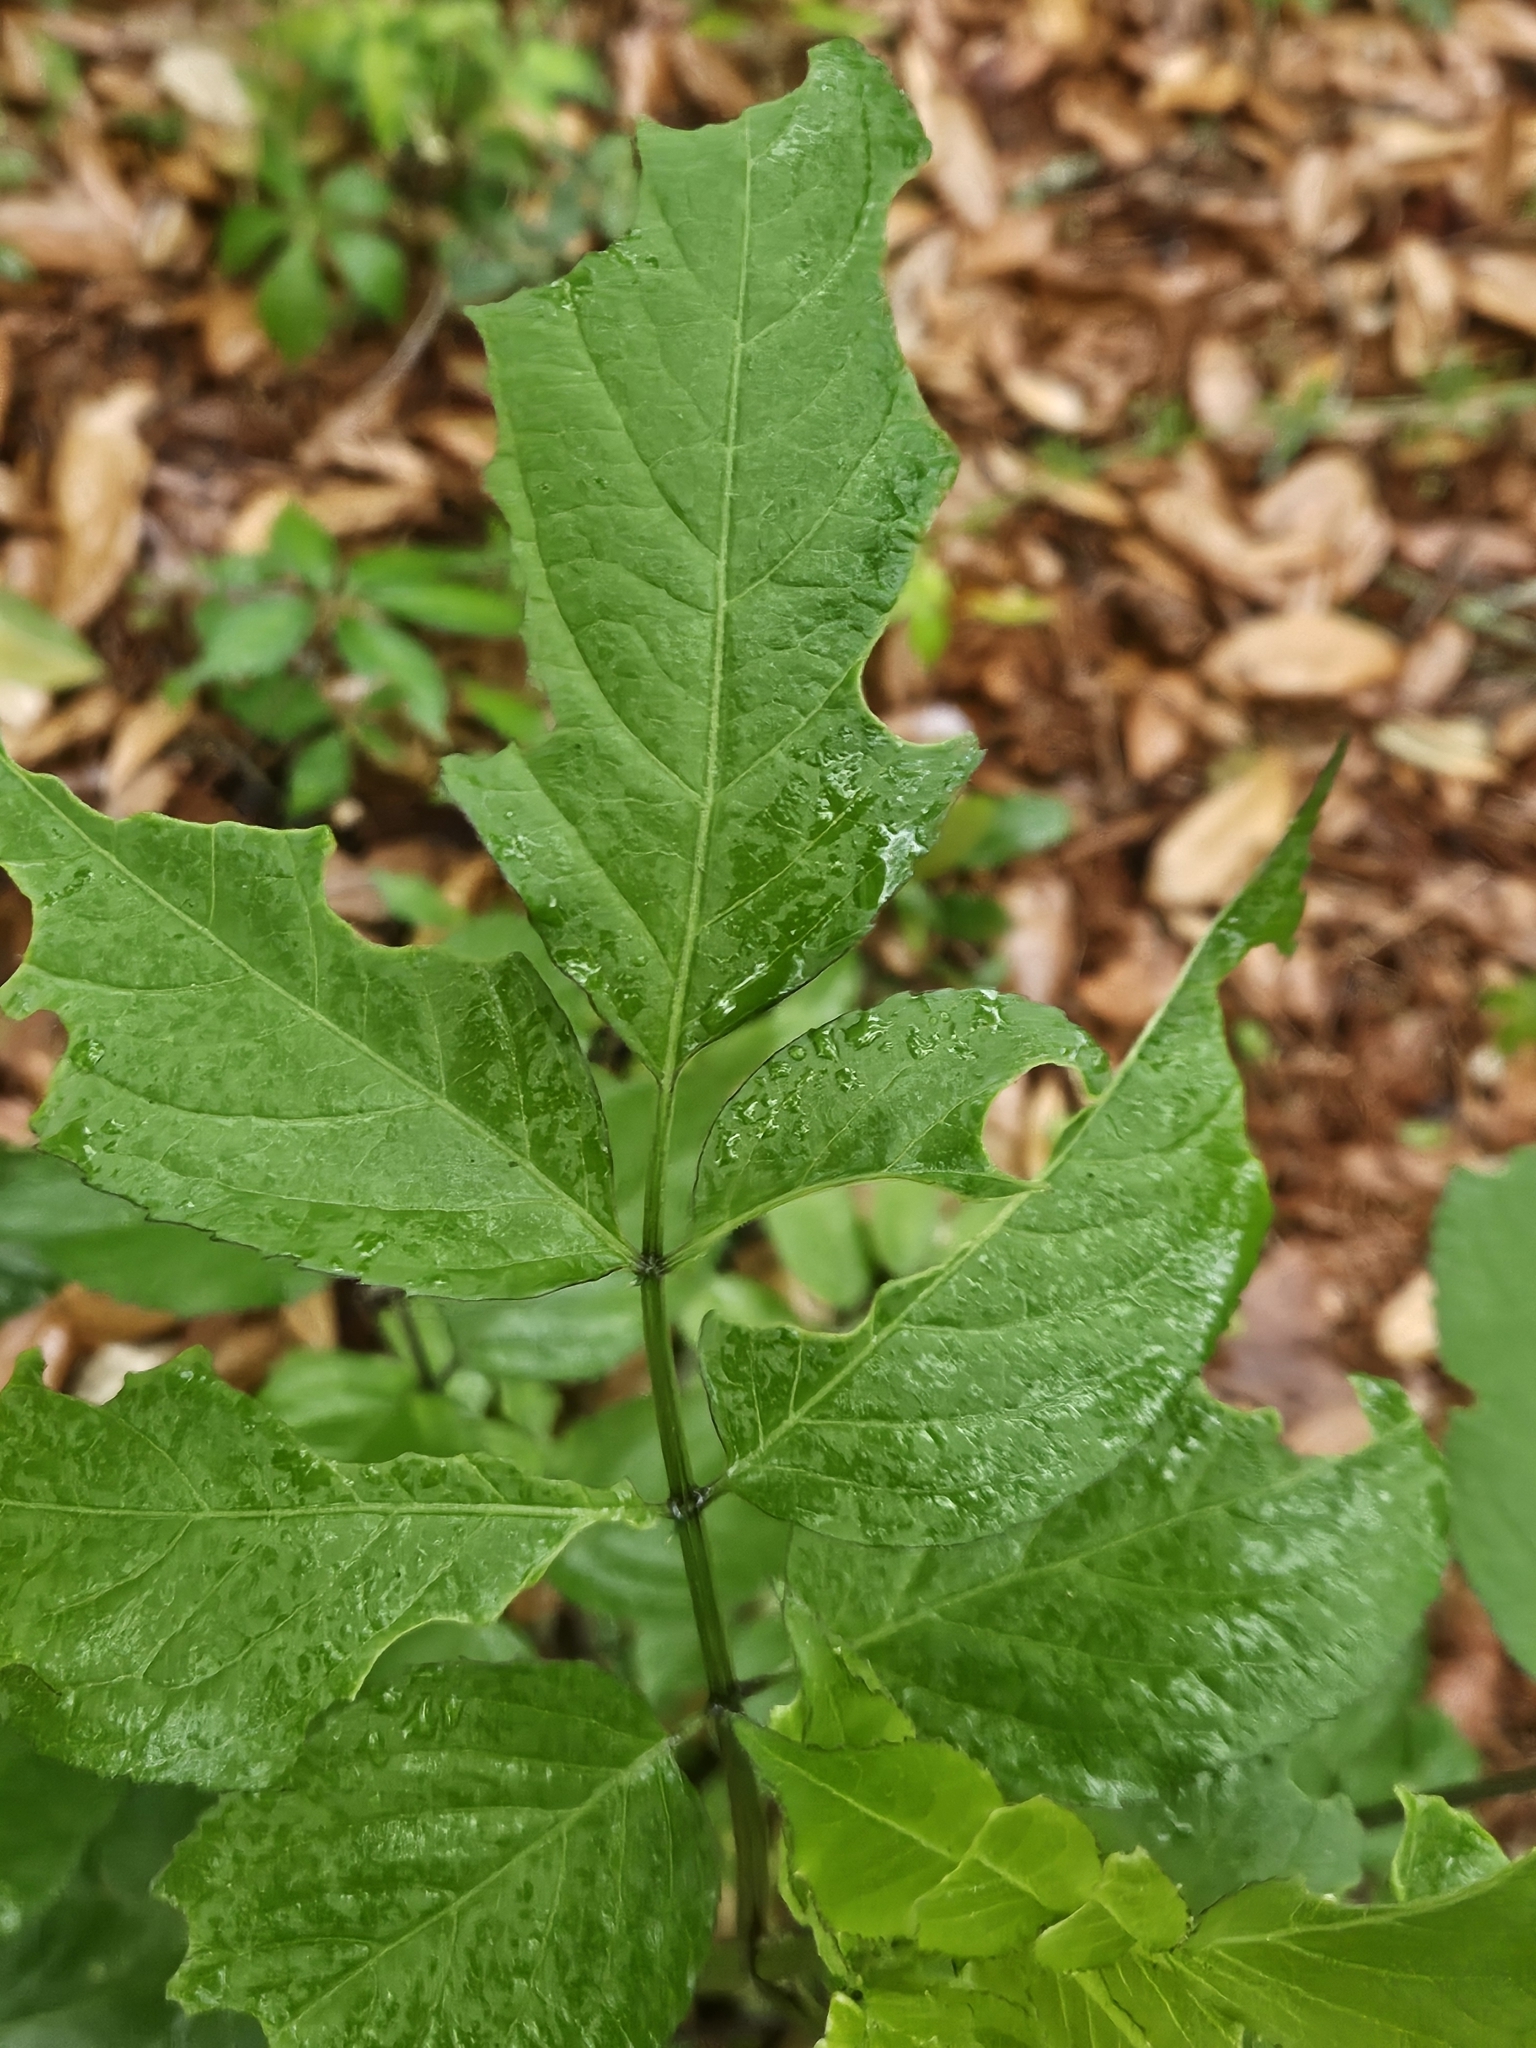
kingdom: Plantae
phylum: Tracheophyta
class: Magnoliopsida
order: Dipsacales
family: Viburnaceae
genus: Sambucus
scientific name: Sambucus canadensis
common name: American elder
